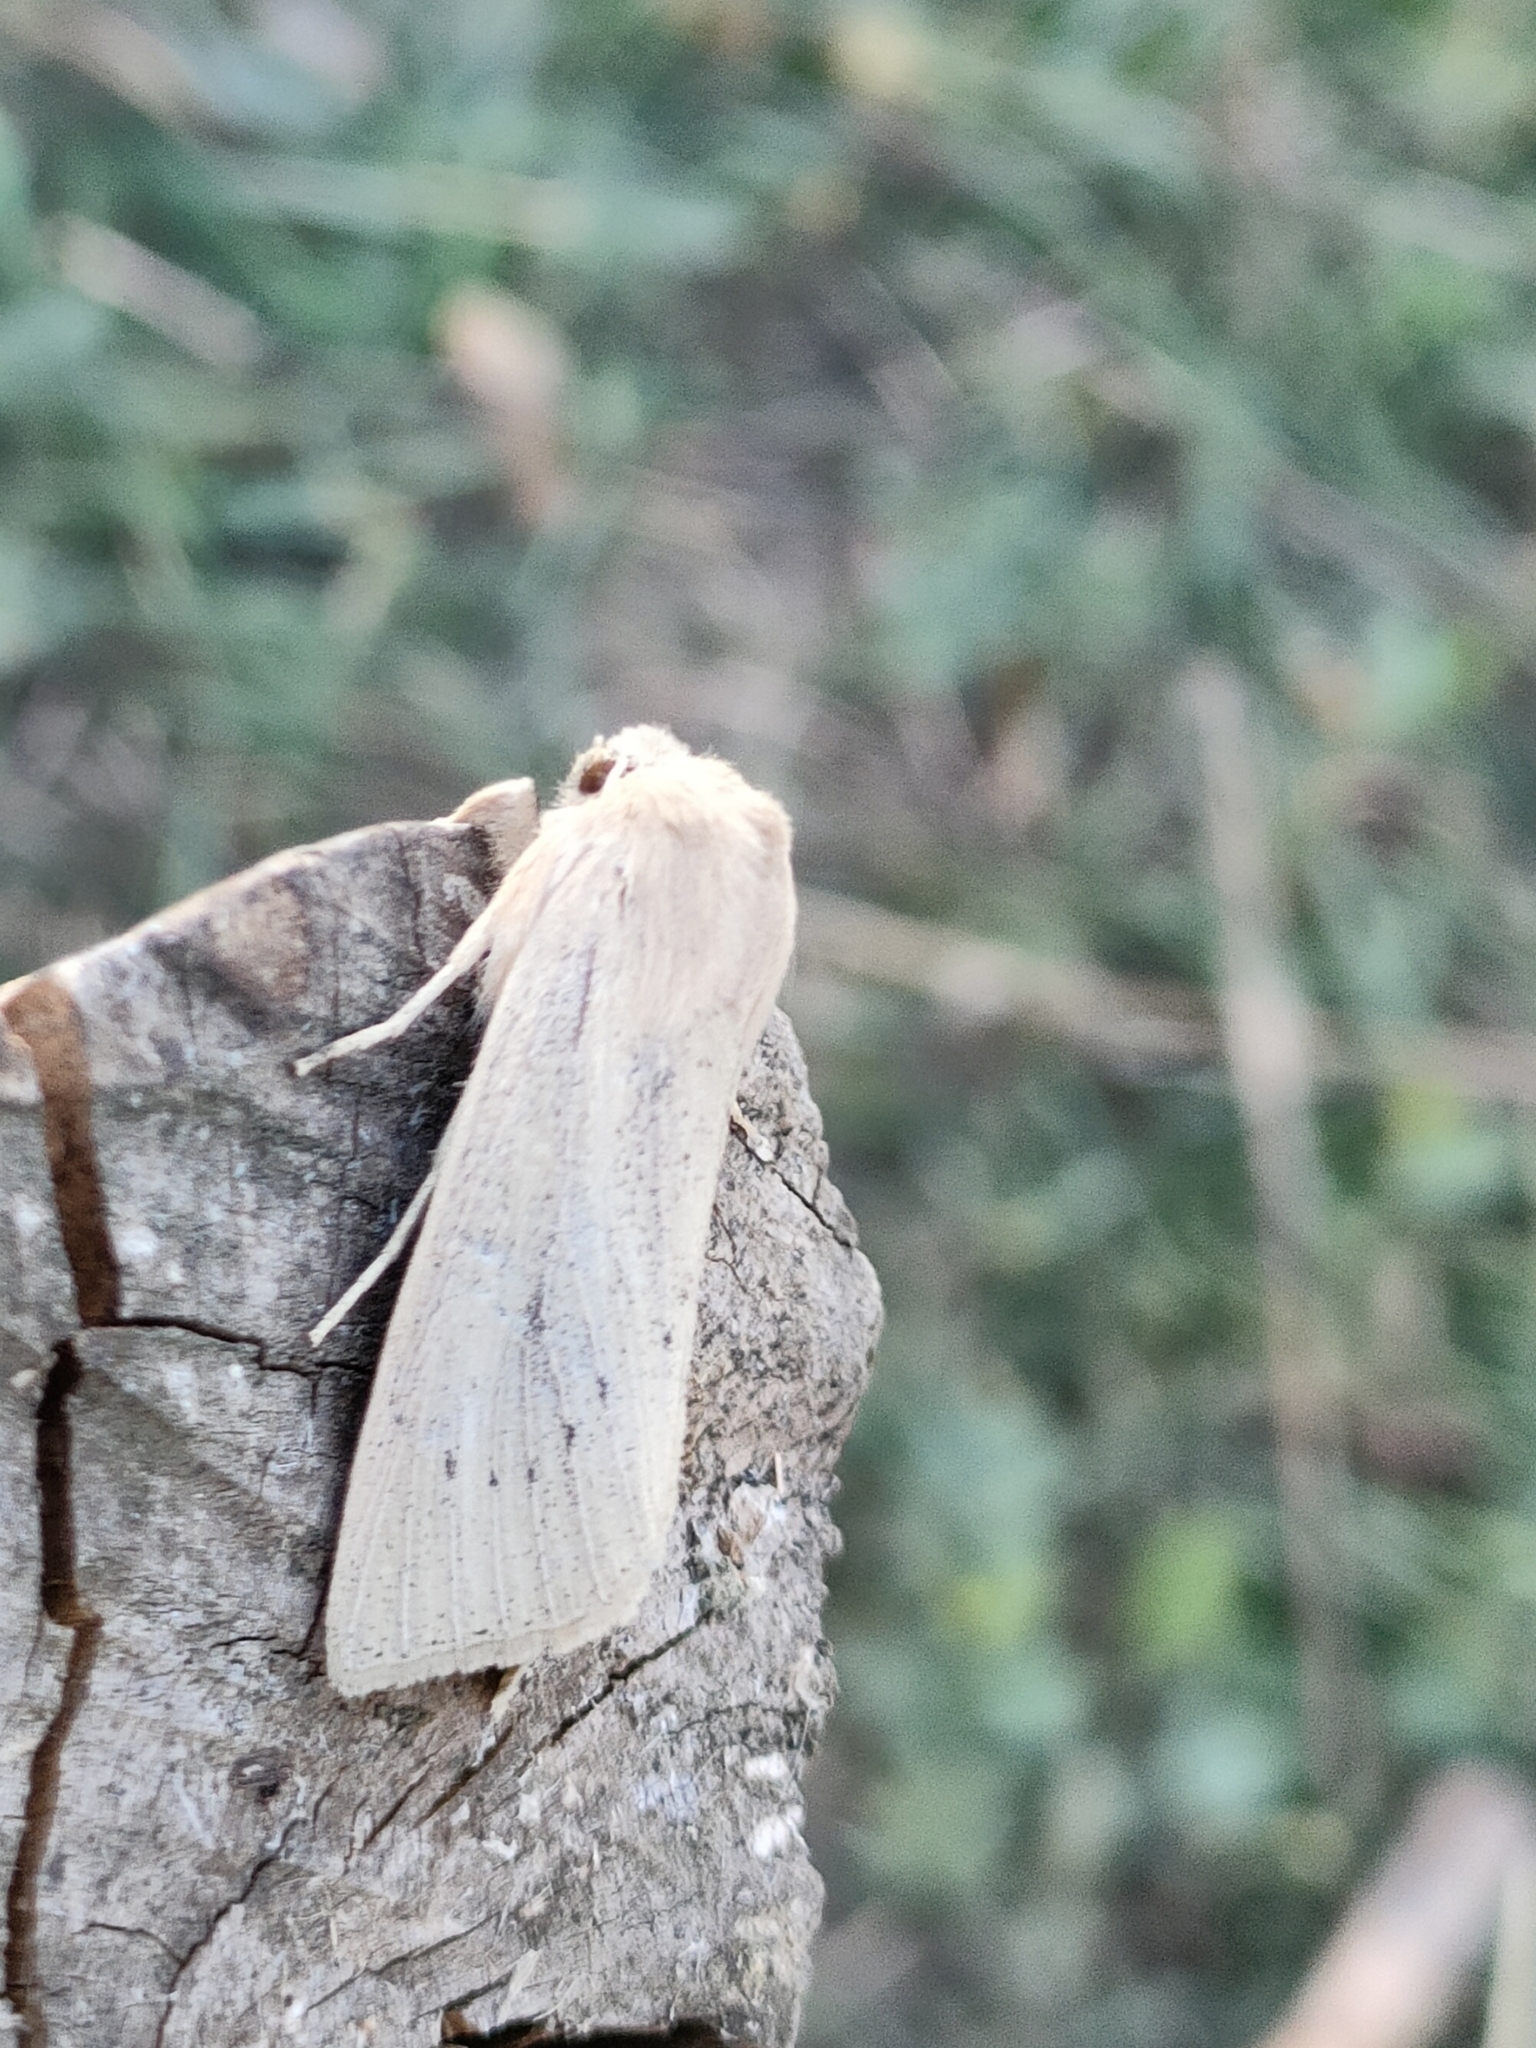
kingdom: Animalia
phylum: Arthropoda
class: Insecta
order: Lepidoptera
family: Noctuidae
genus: Rhizedra
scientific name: Rhizedra lutosa
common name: Large wainscot
